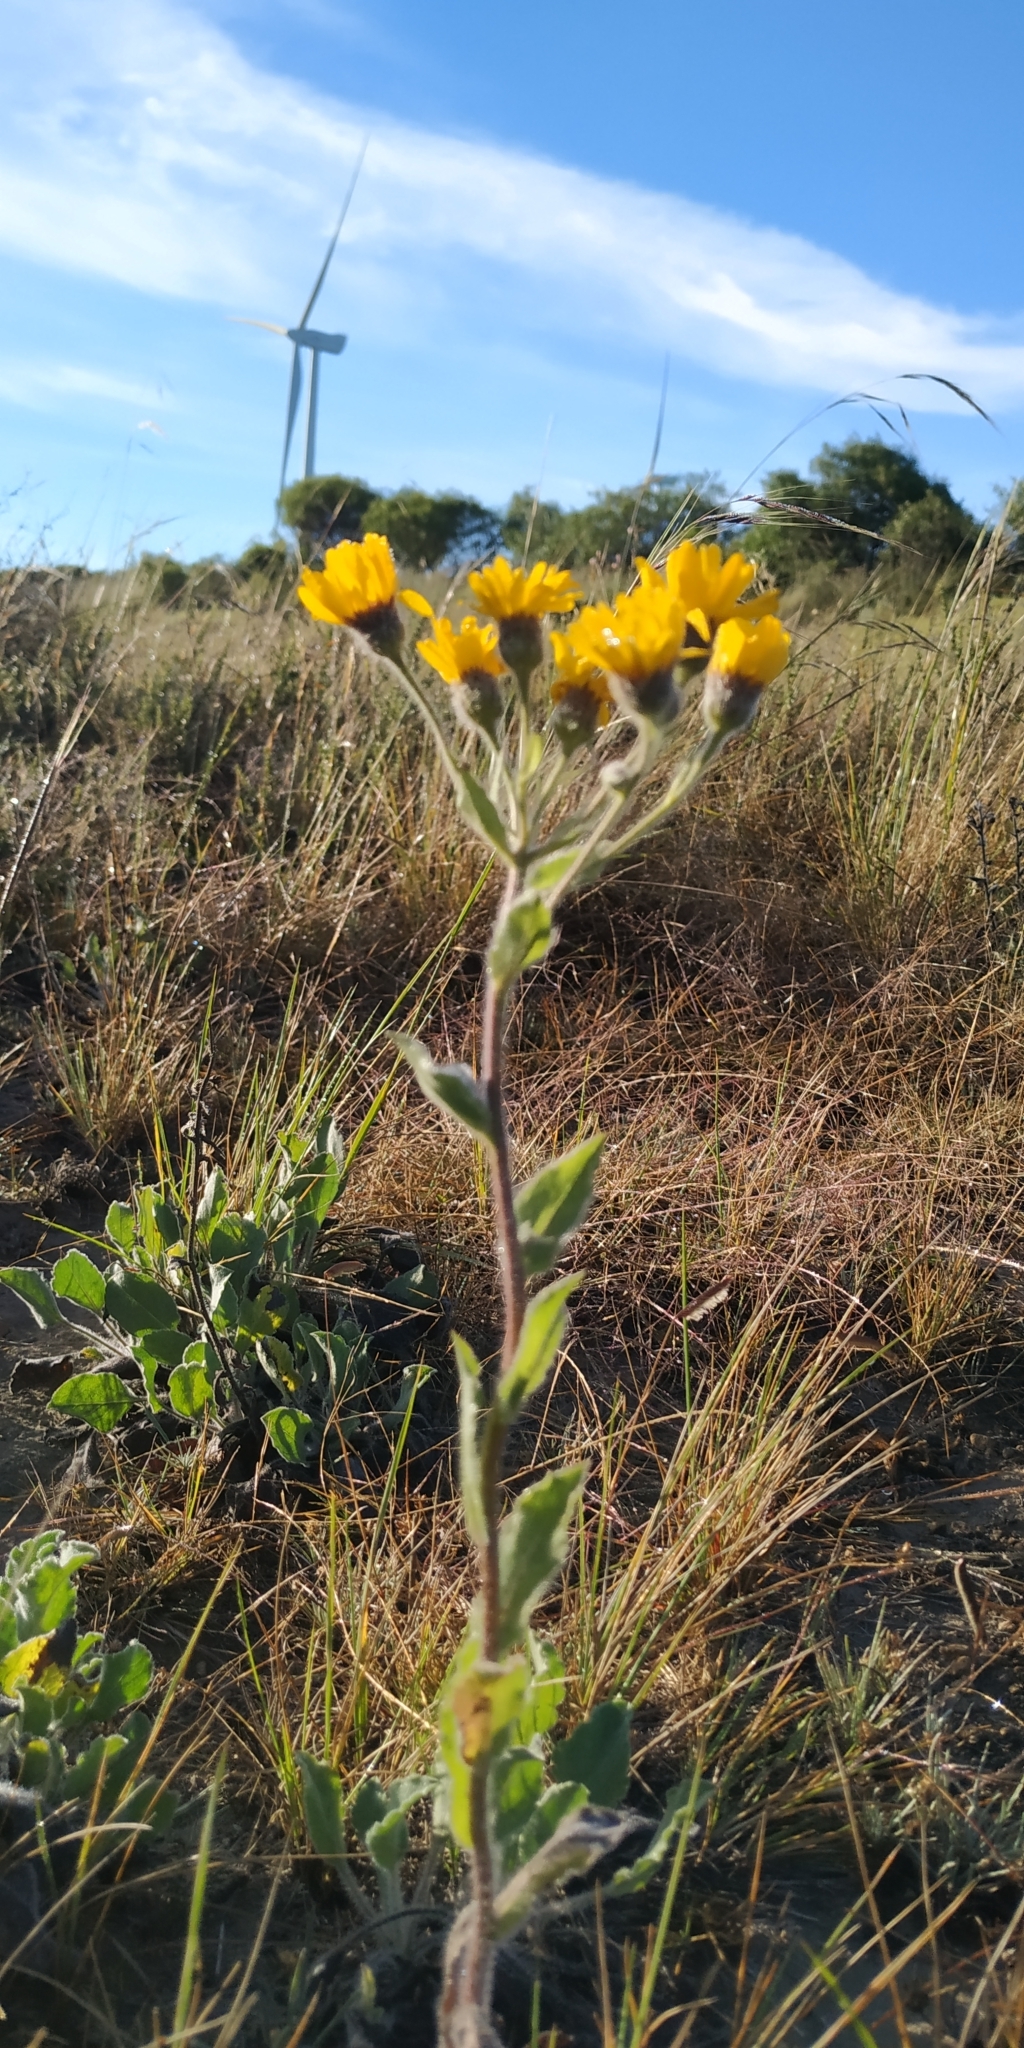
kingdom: Plantae
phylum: Tracheophyta
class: Magnoliopsida
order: Asterales
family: Asteraceae
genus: Heterotheca
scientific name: Heterotheca inuloides
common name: False arnica
